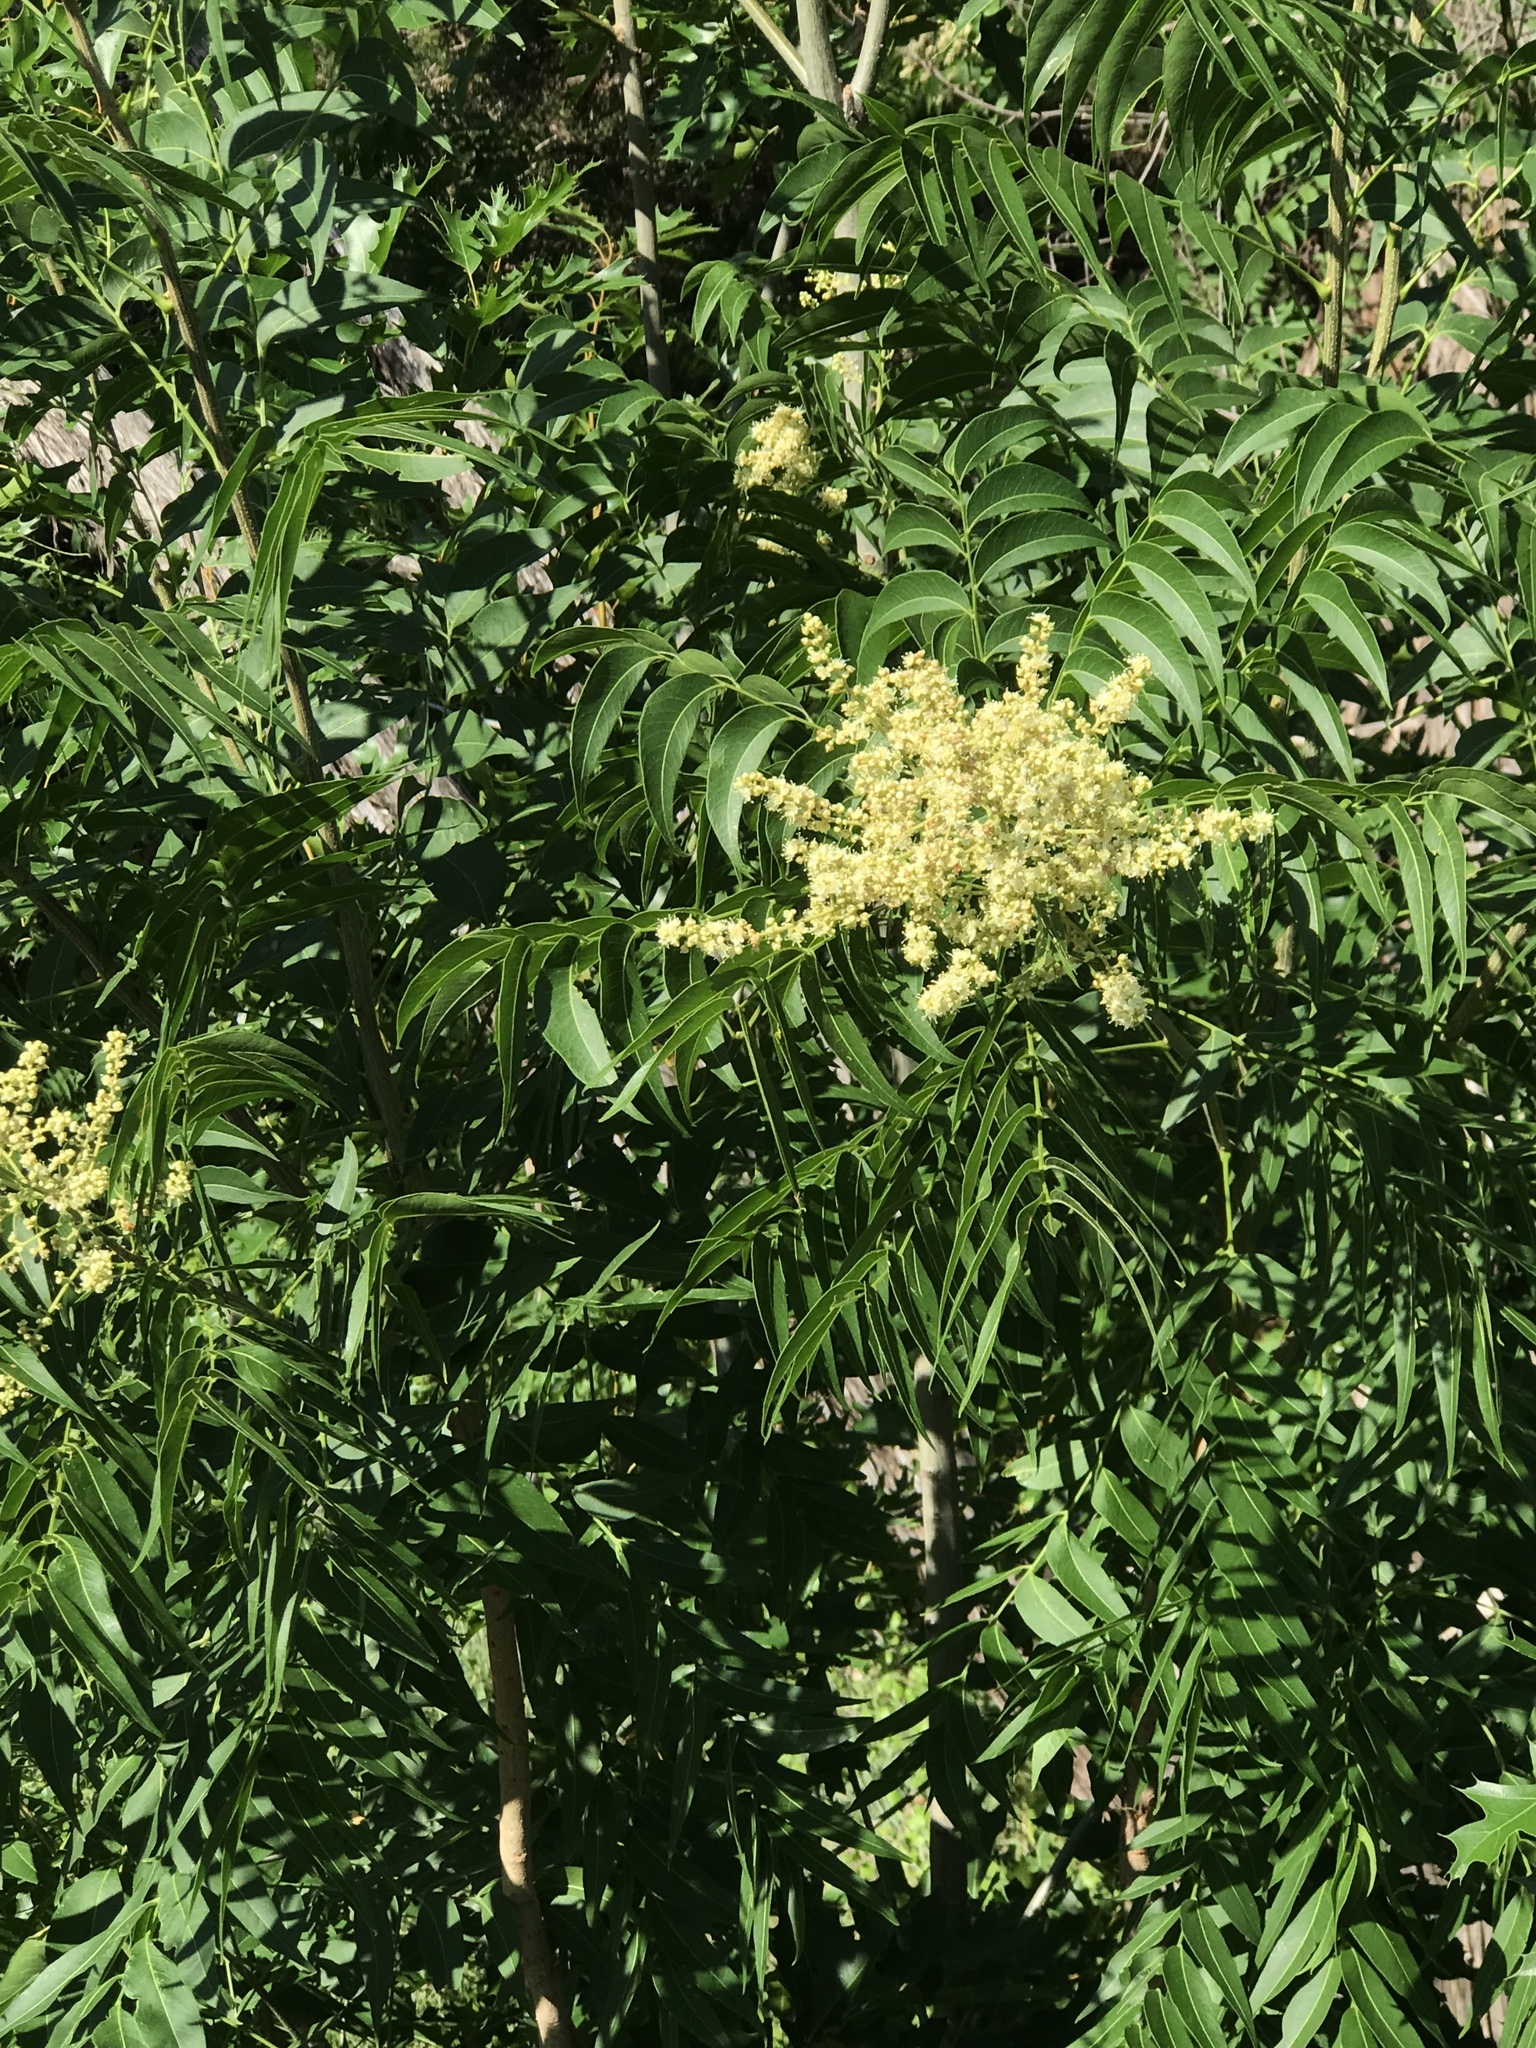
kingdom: Plantae
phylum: Tracheophyta
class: Magnoliopsida
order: Sapindales
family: Sapindaceae
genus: Sapindus
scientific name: Sapindus drummondii
